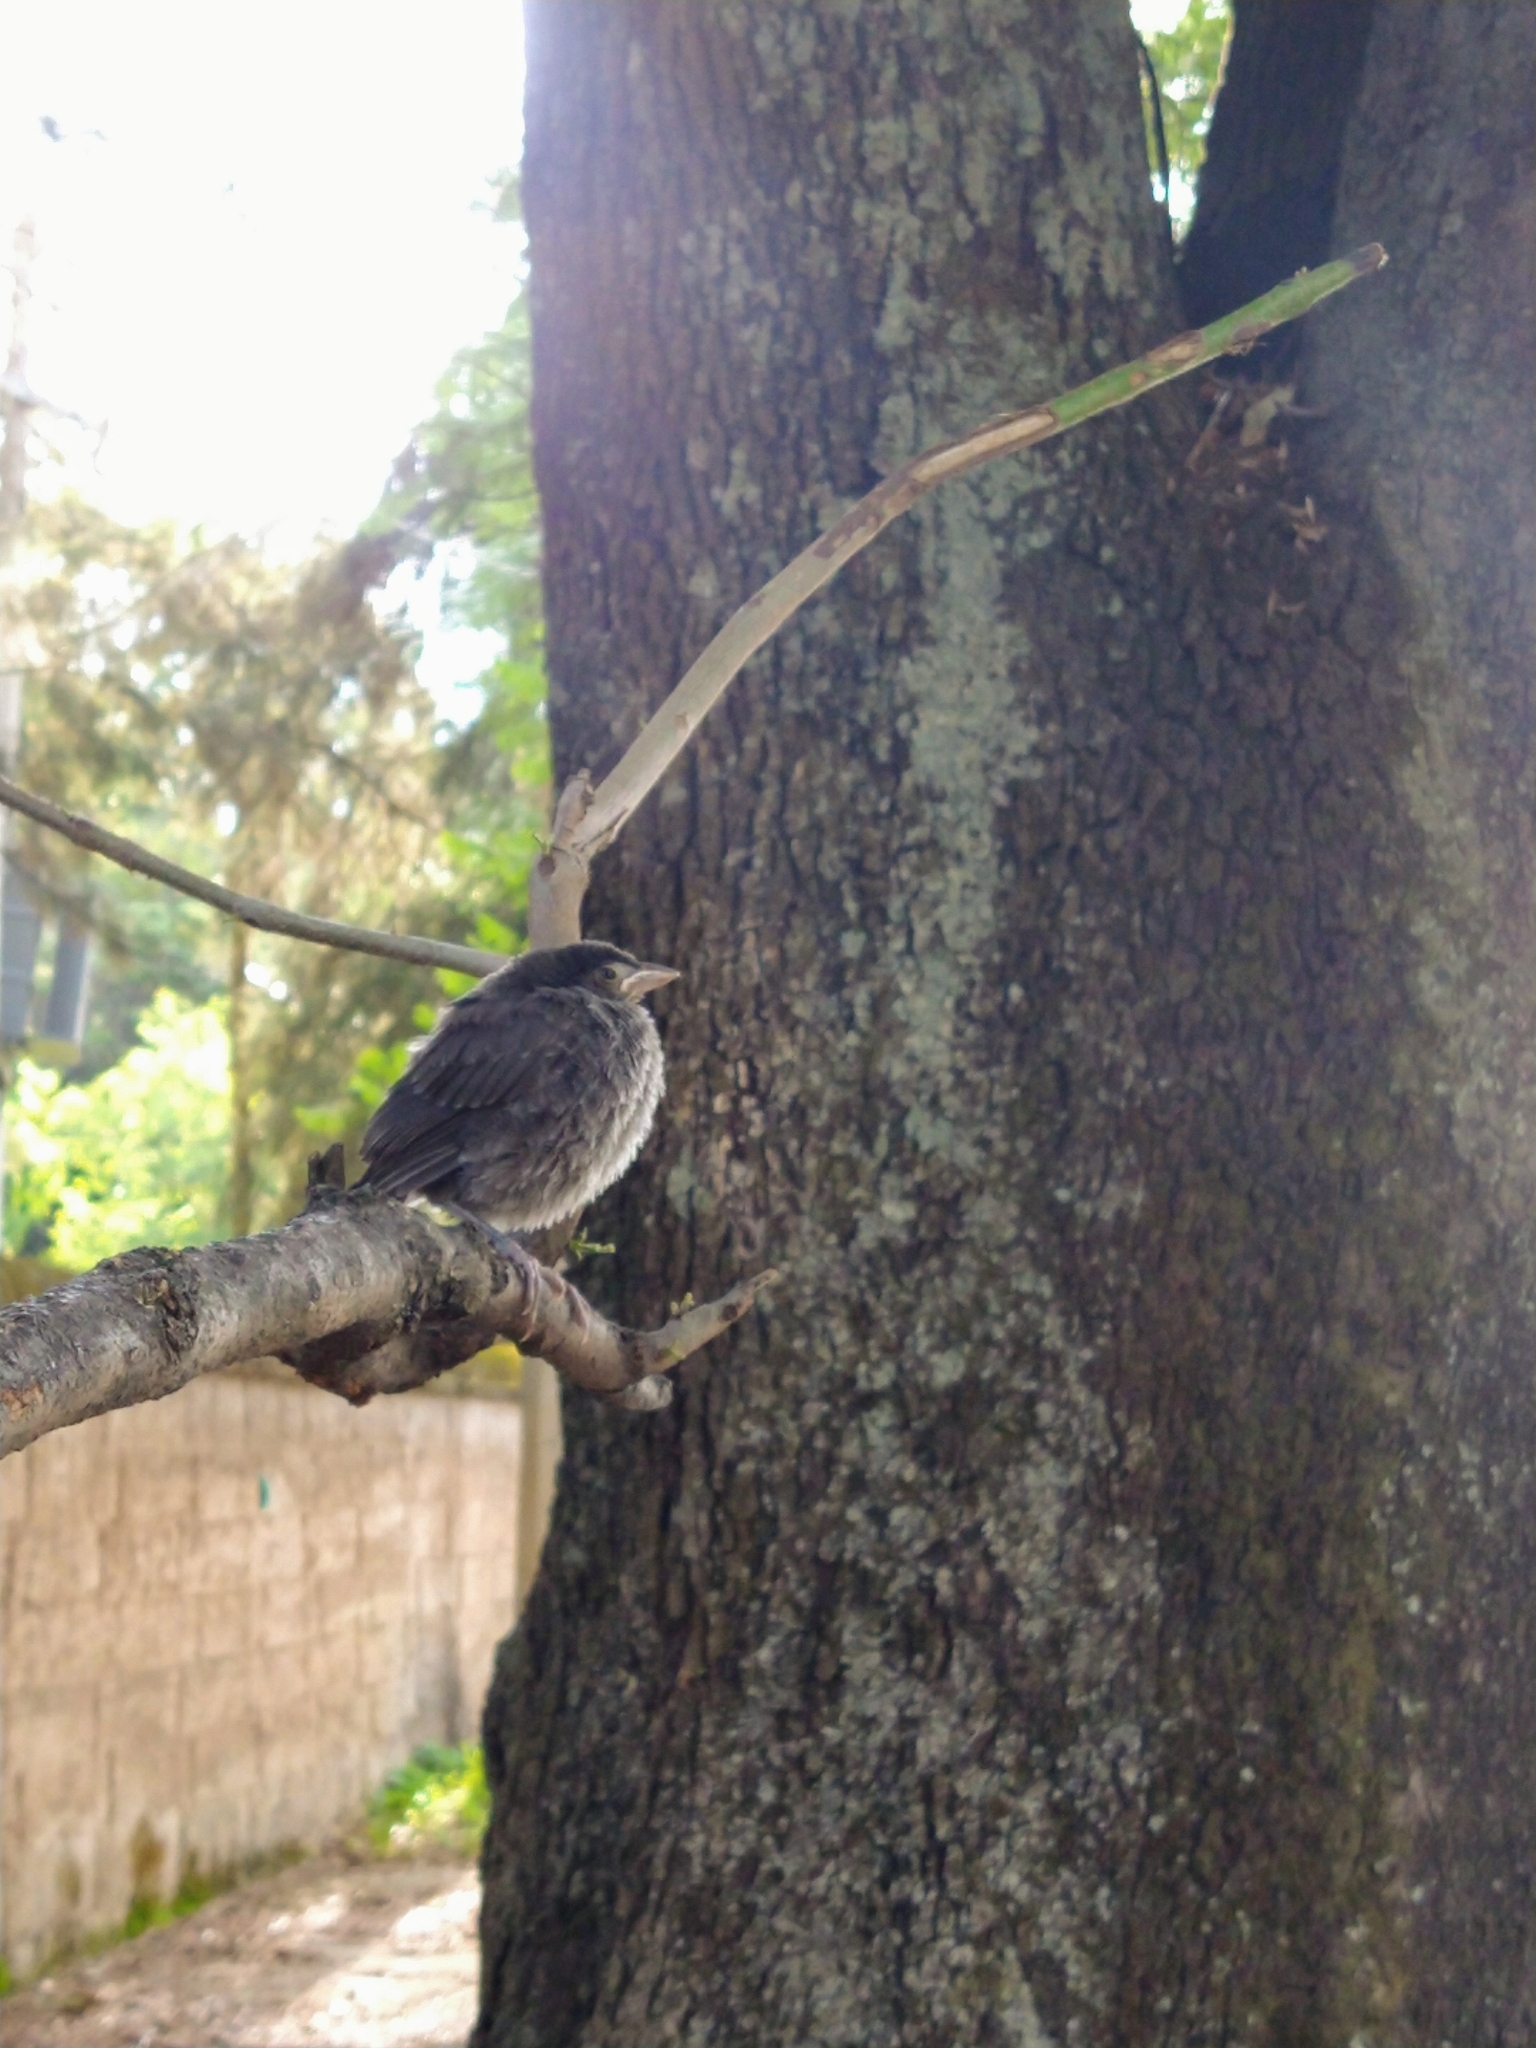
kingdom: Animalia
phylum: Chordata
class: Aves
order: Passeriformes
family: Passerellidae
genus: Melozone
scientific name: Melozone fusca
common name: Canyon towhee
